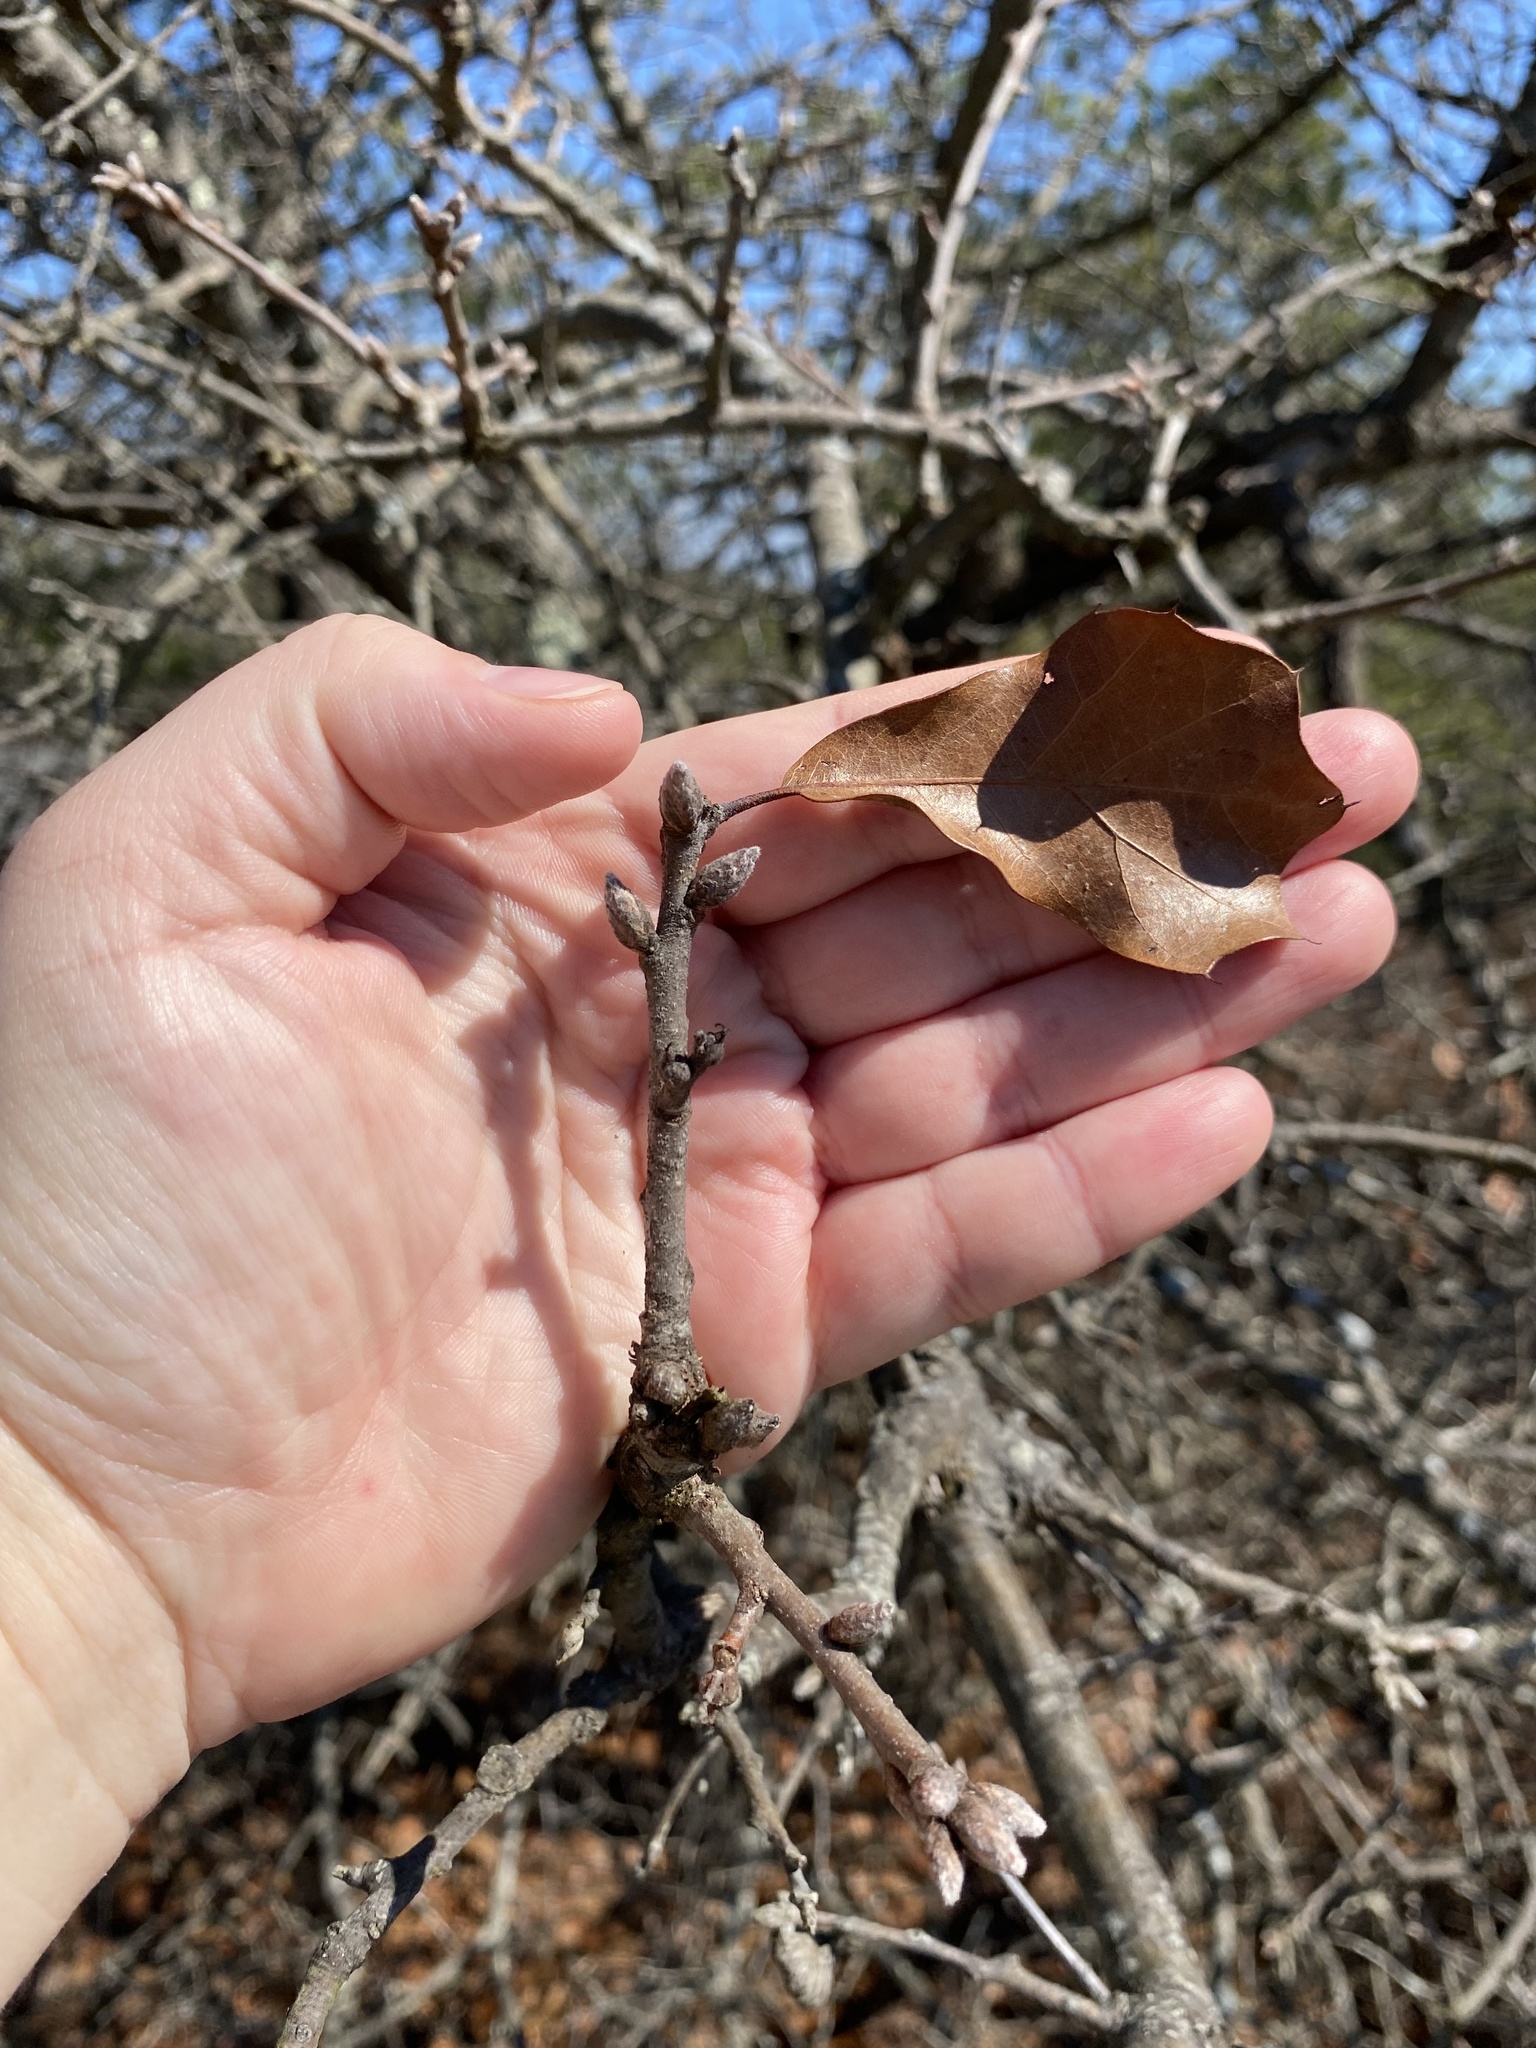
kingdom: Plantae
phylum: Tracheophyta
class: Magnoliopsida
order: Fagales
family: Fagaceae
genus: Quercus
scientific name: Quercus marilandica
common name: Blackjack oak
